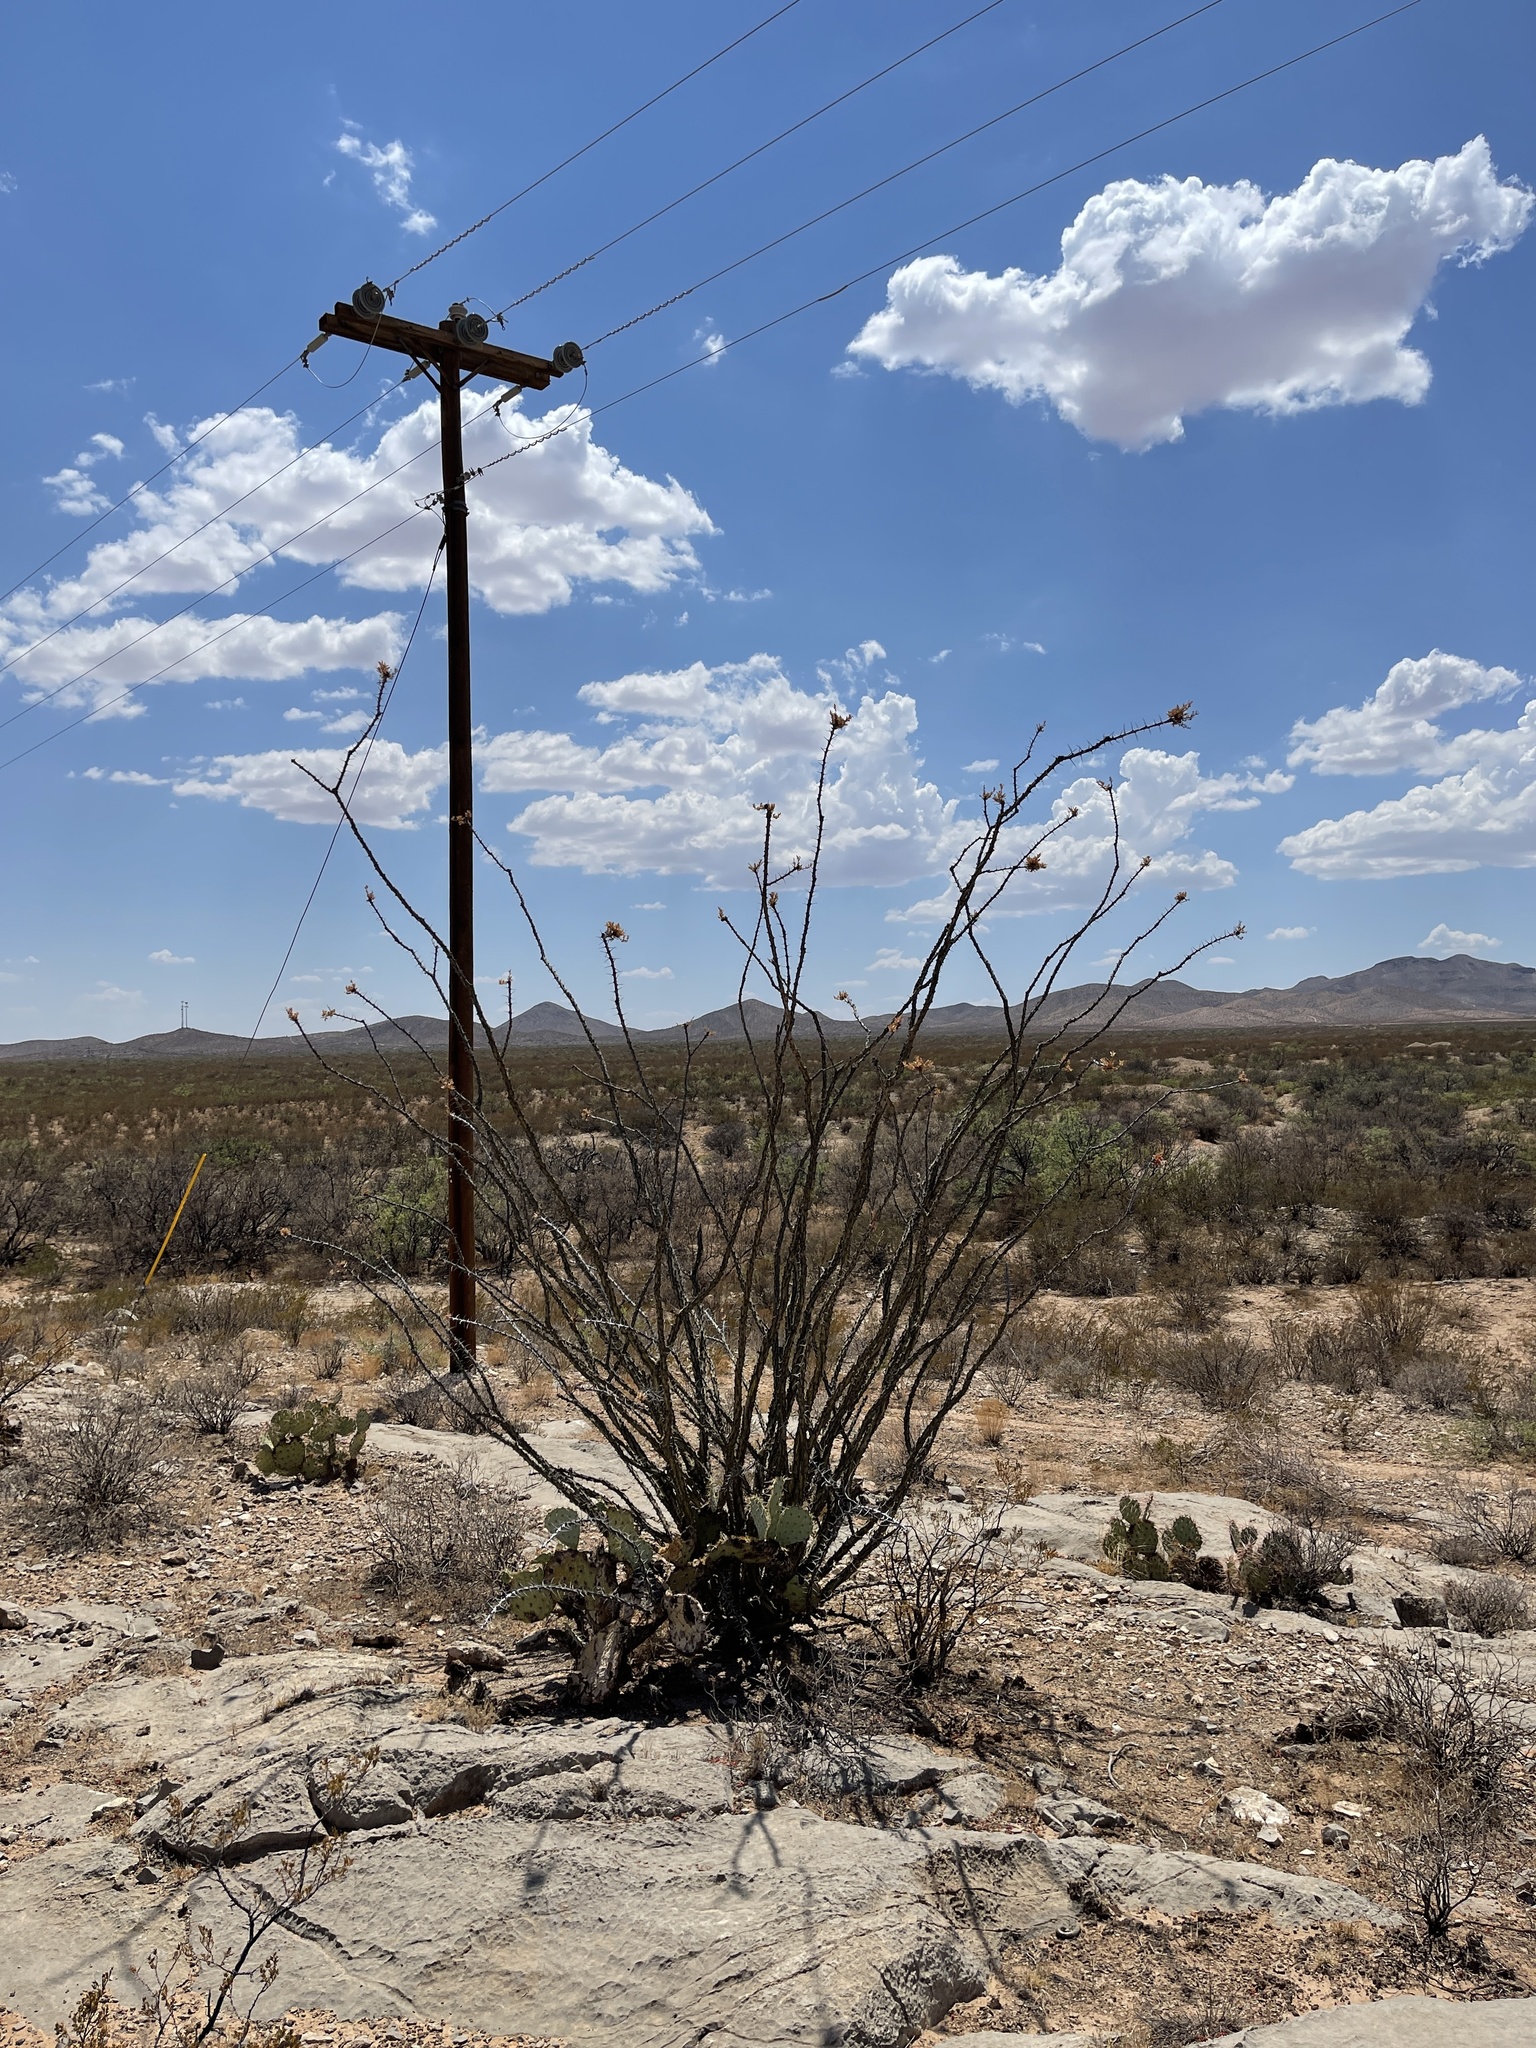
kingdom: Plantae
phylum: Tracheophyta
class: Magnoliopsida
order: Ericales
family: Fouquieriaceae
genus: Fouquieria
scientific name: Fouquieria splendens
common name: Vine-cactus
